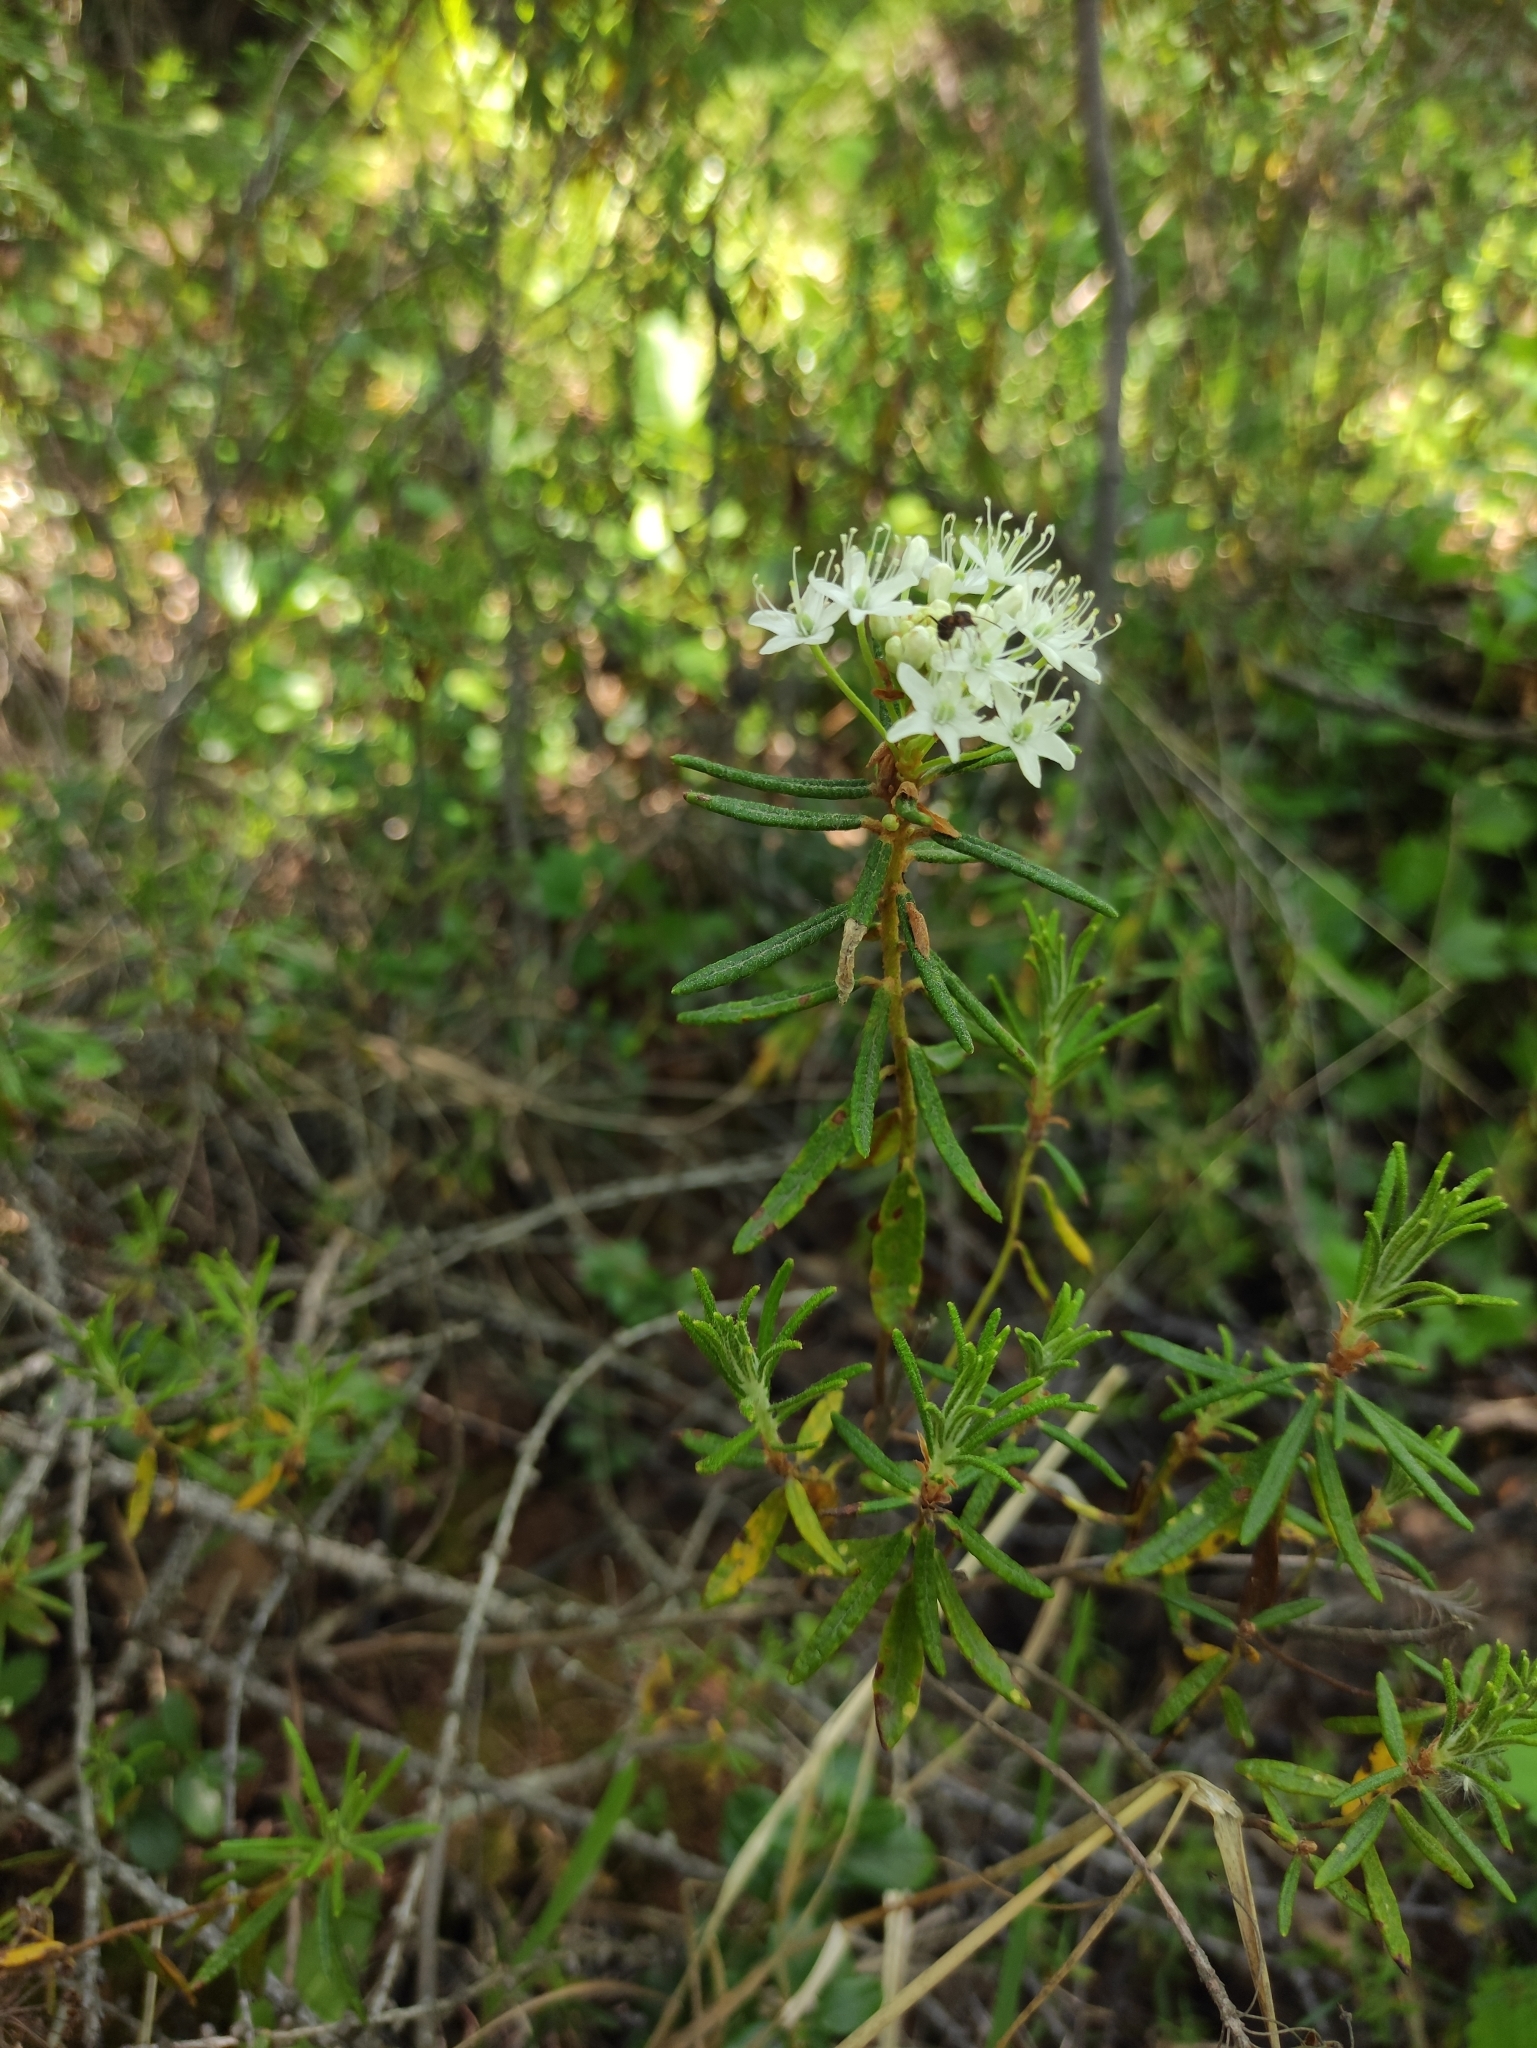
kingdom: Plantae
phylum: Tracheophyta
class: Magnoliopsida
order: Ericales
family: Ericaceae
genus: Rhododendron
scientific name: Rhododendron tomentosum
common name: Marsh labrador tea
